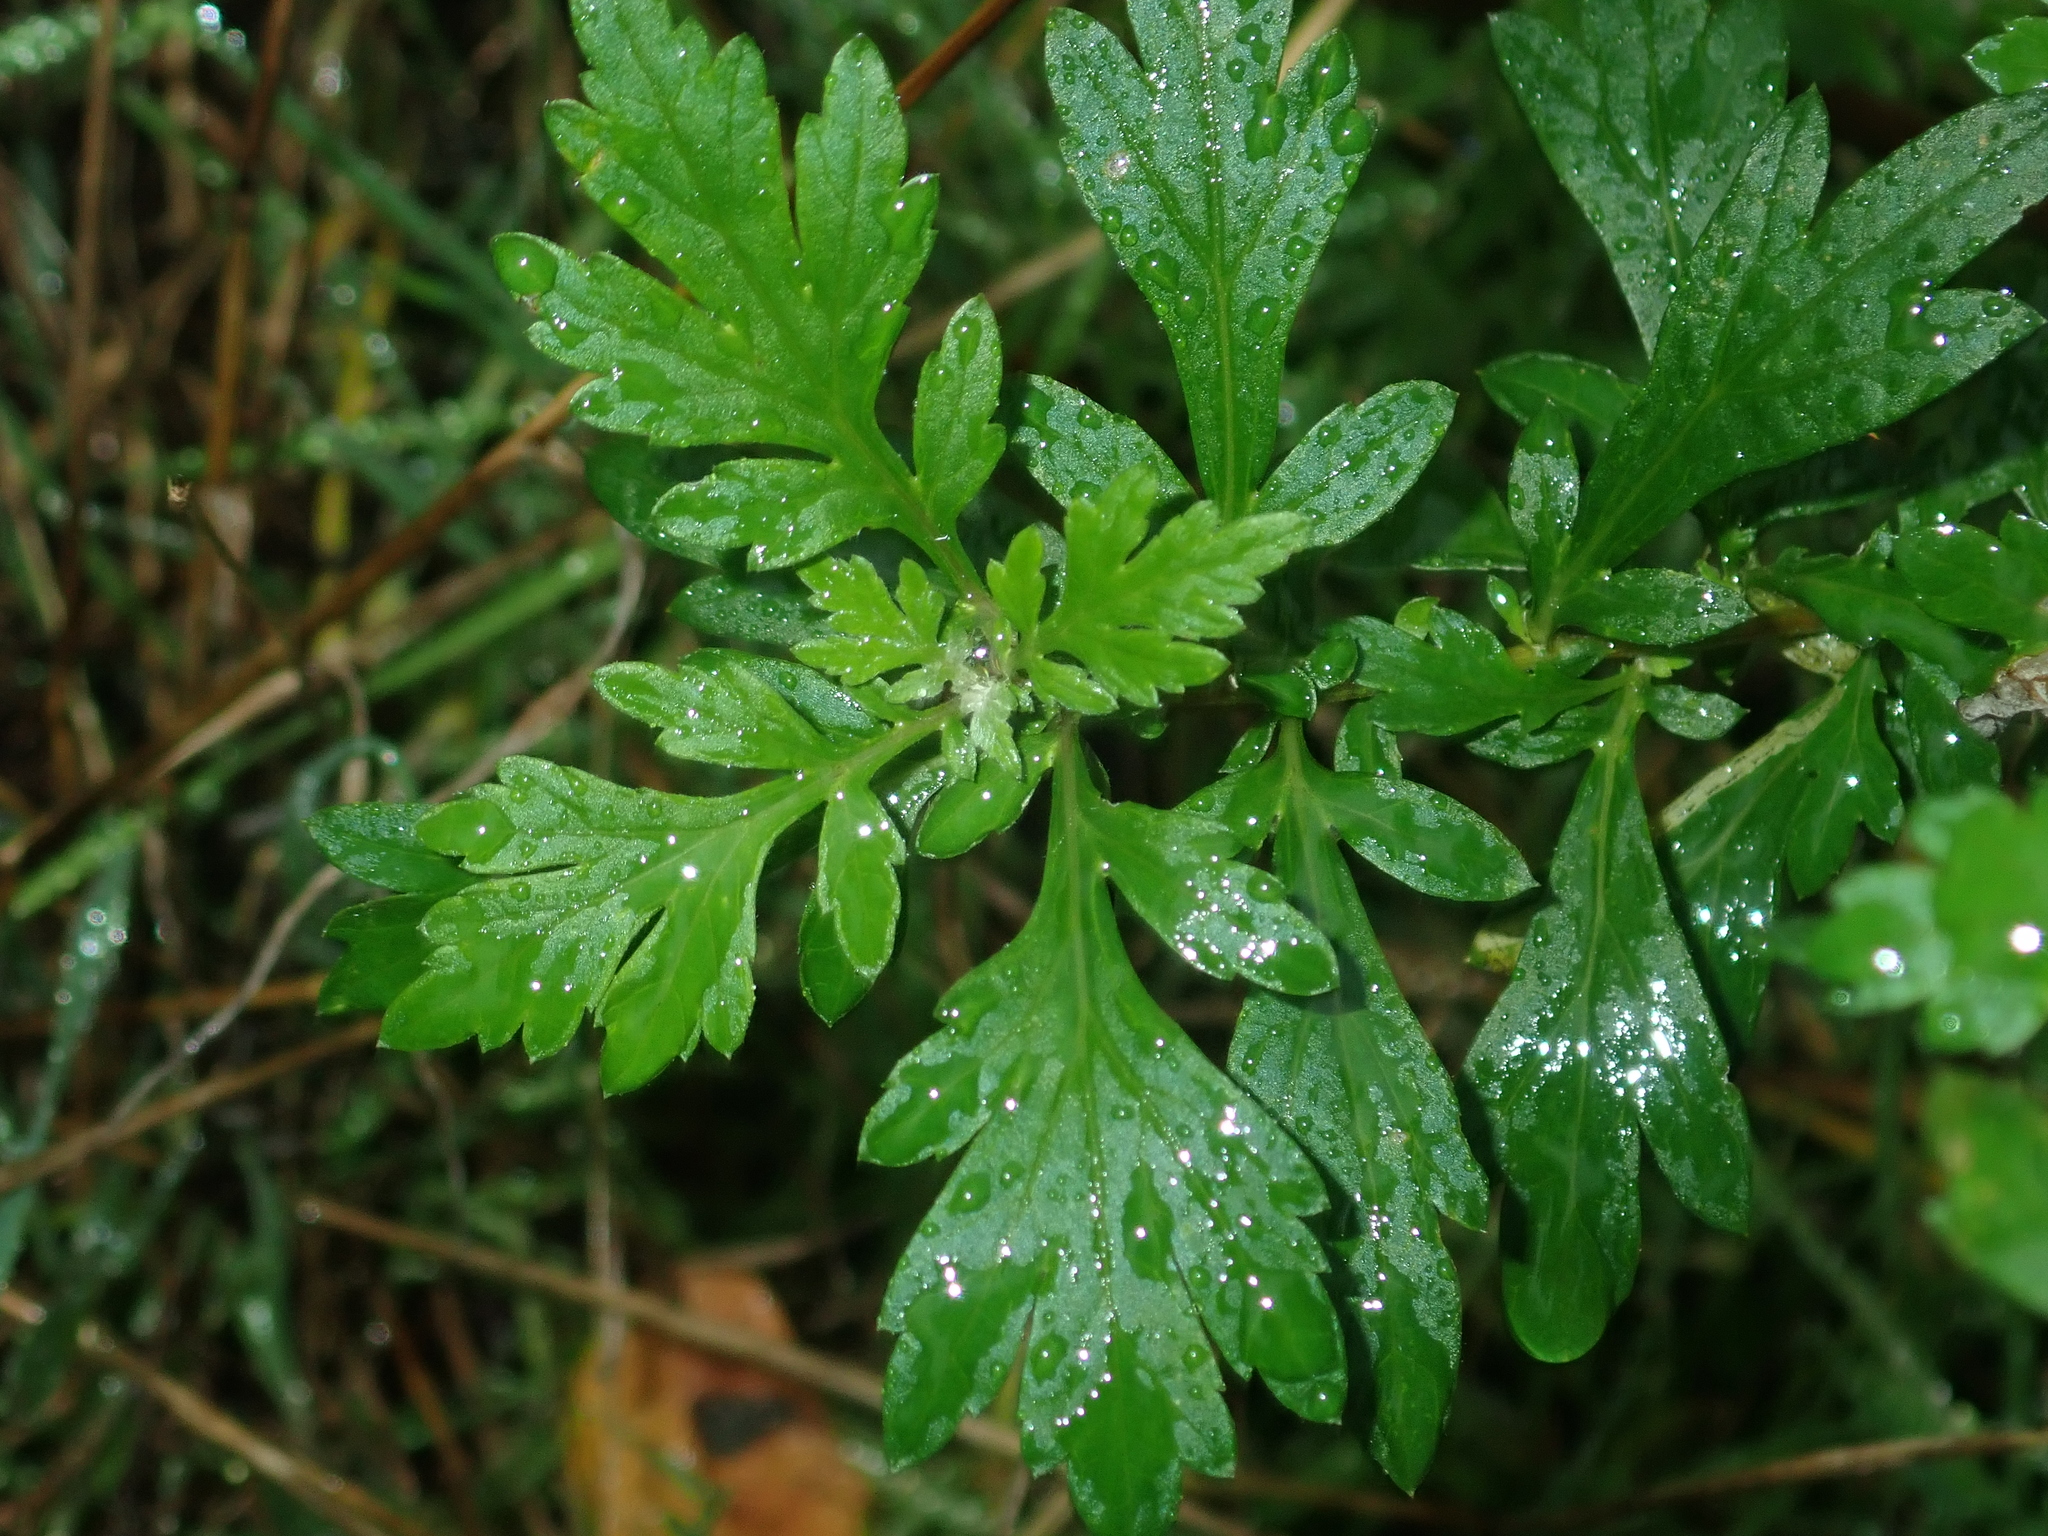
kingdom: Plantae
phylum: Tracheophyta
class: Magnoliopsida
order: Asterales
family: Asteraceae
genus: Artemisia
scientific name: Artemisia vulgaris
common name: Mugwort
